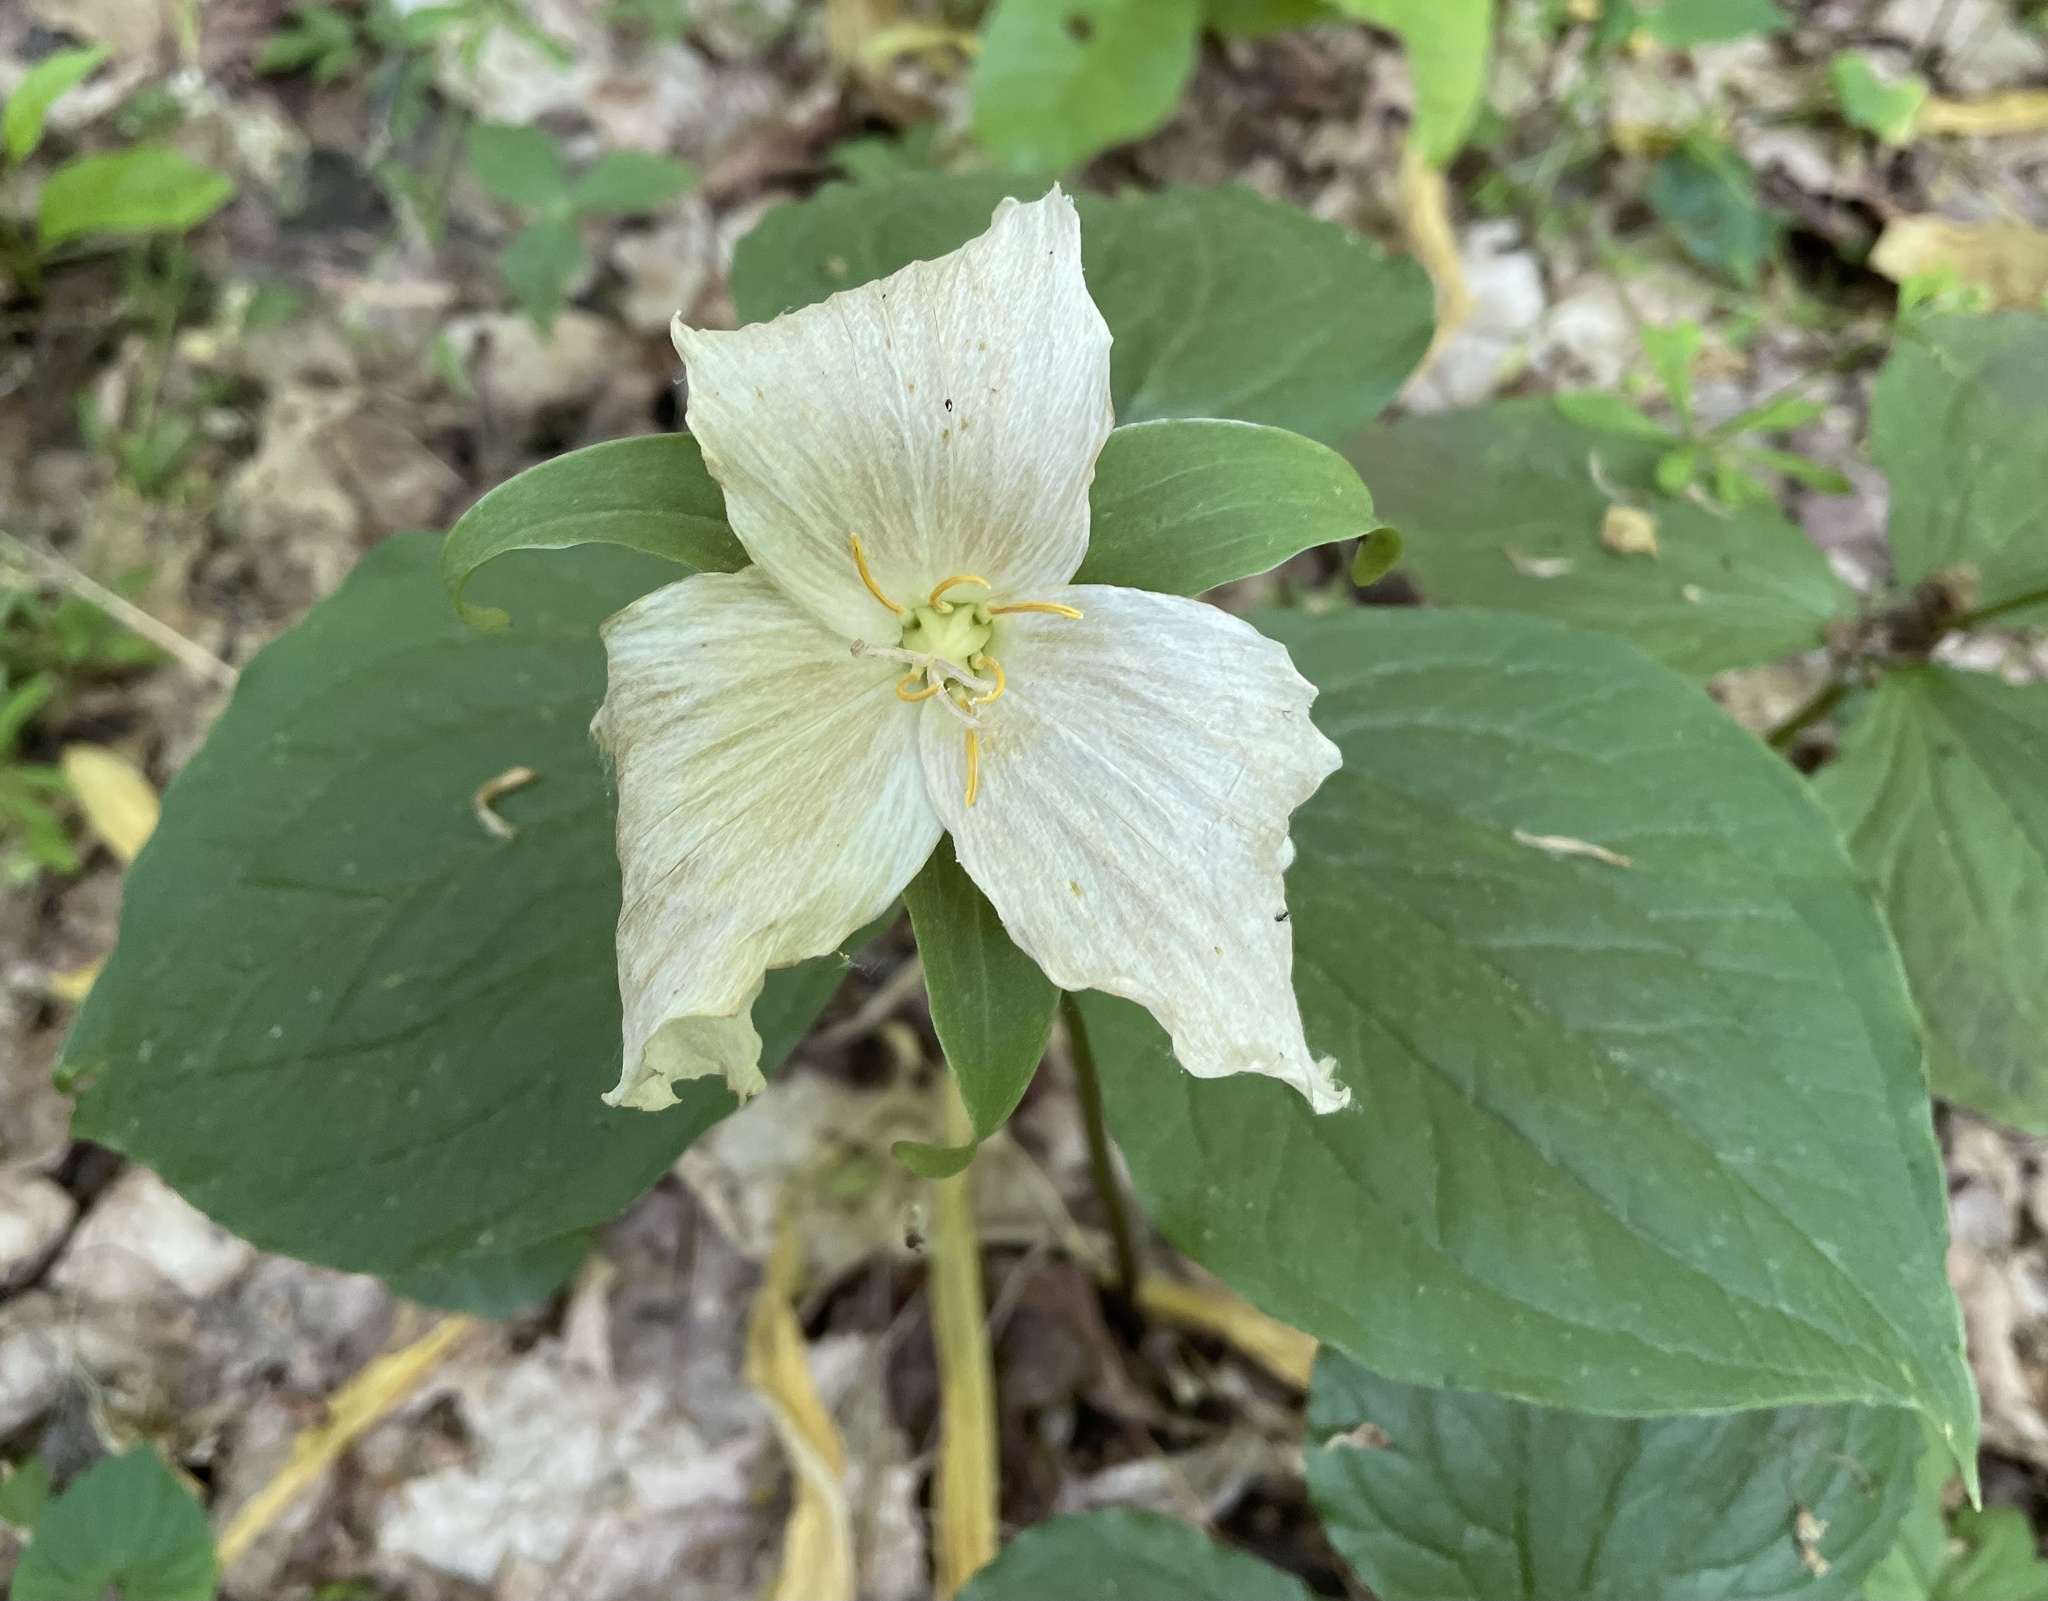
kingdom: Plantae
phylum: Tracheophyta
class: Liliopsida
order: Liliales
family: Melanthiaceae
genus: Trillium
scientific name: Trillium grandiflorum
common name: Great white trillium
